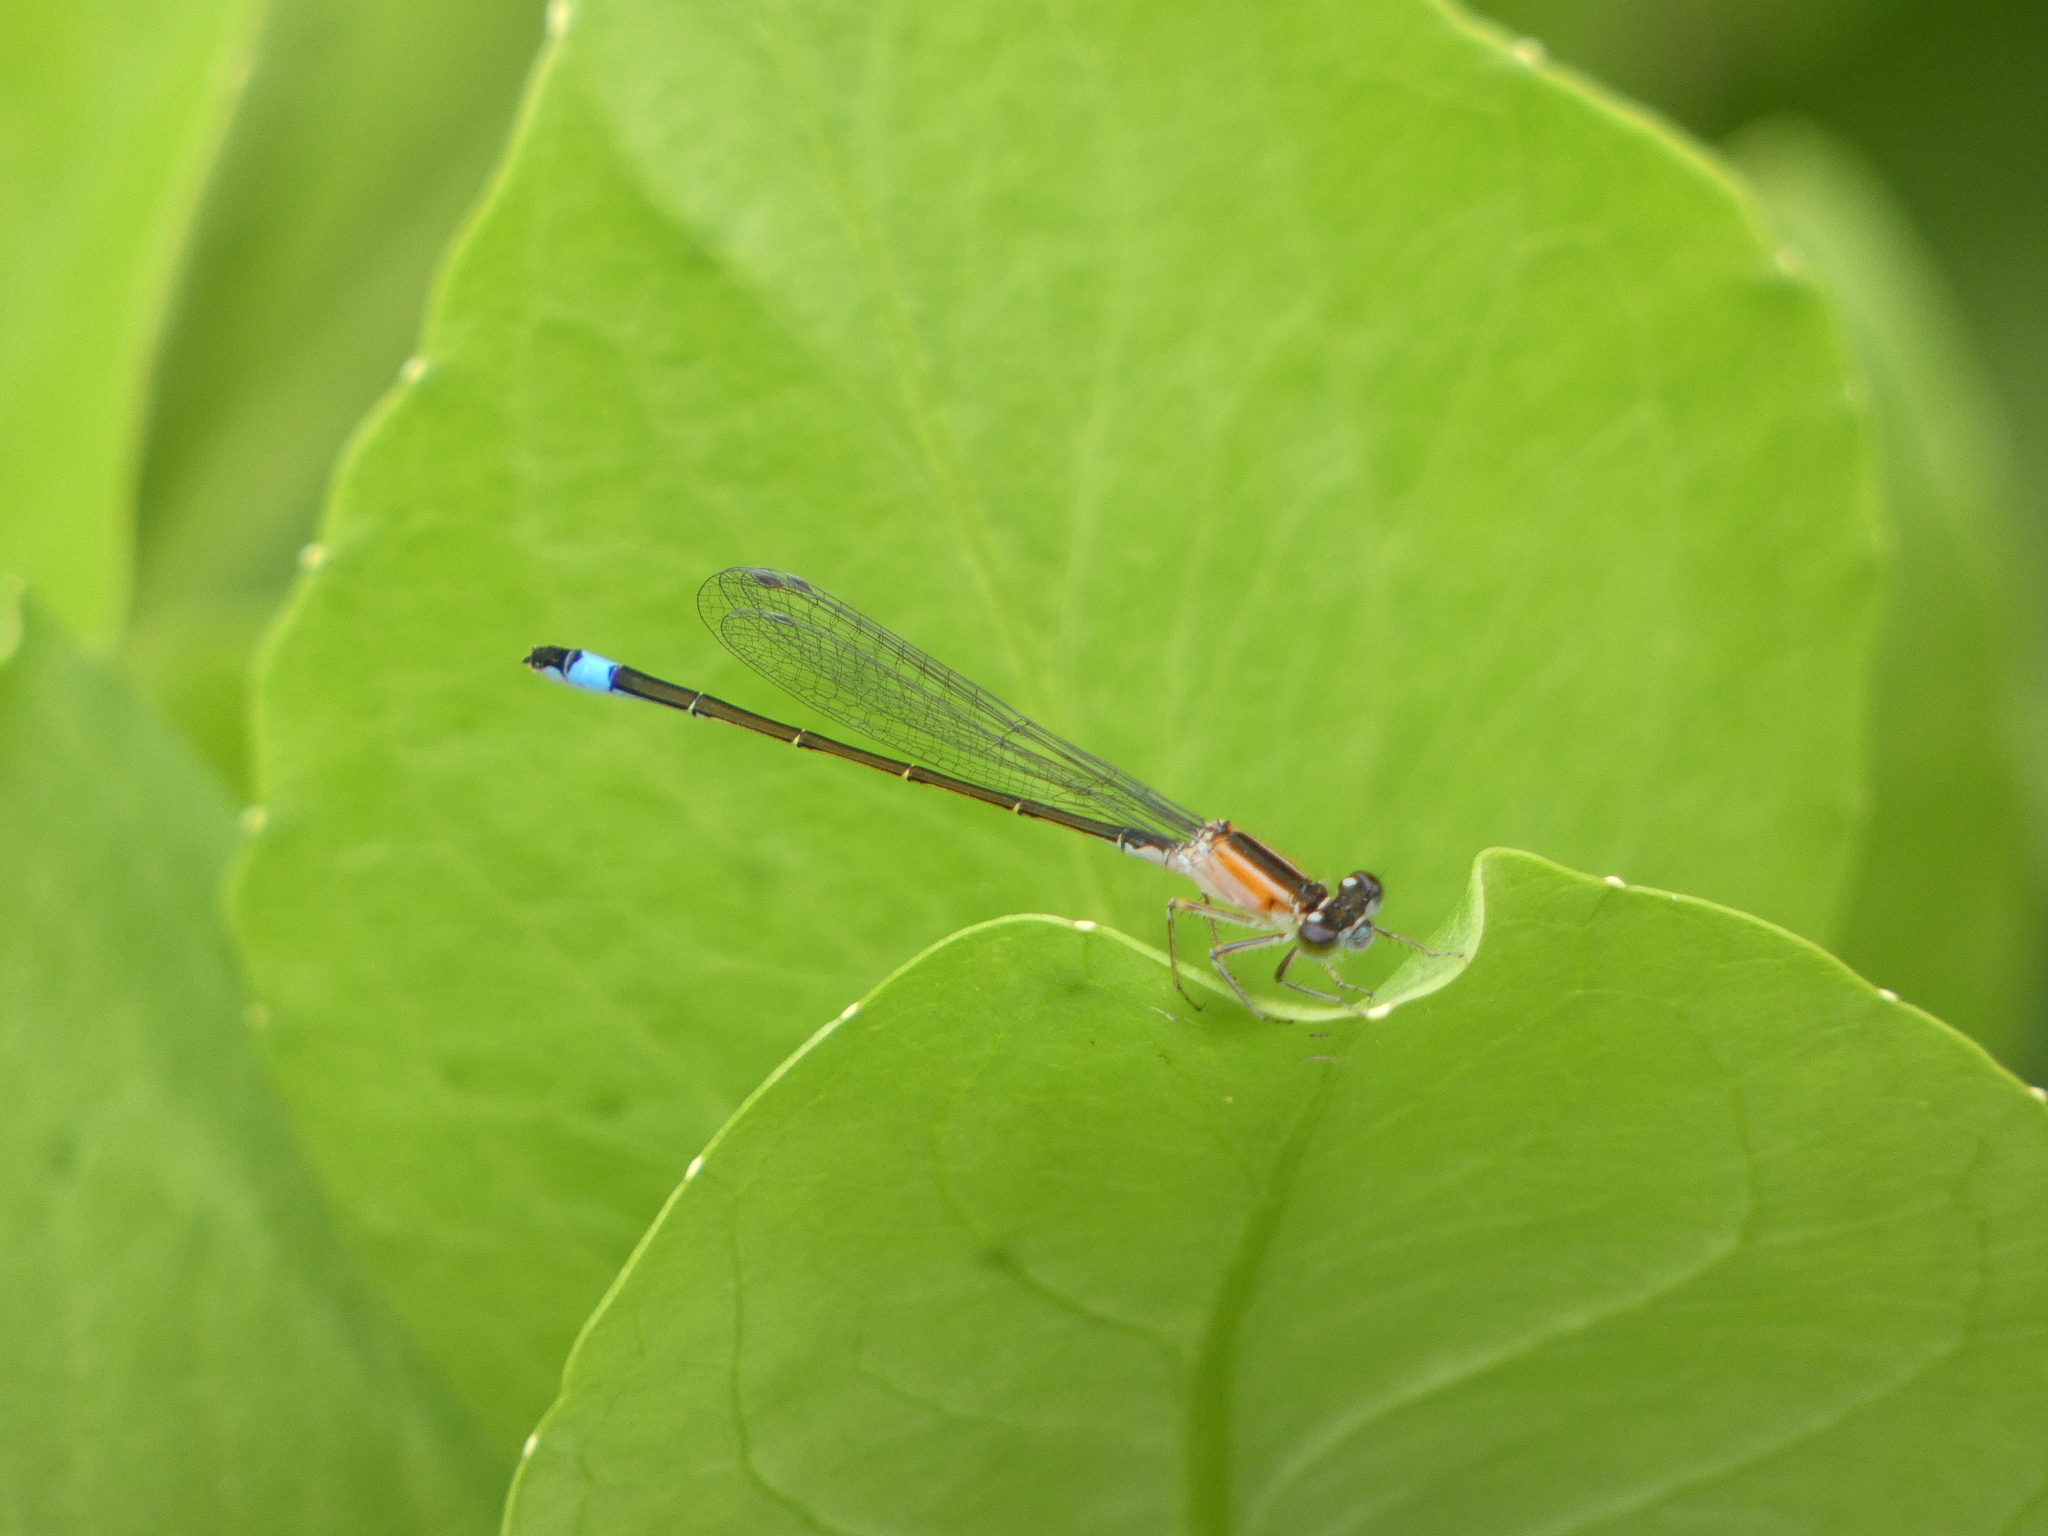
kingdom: Animalia
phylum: Arthropoda
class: Insecta
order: Odonata
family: Coenagrionidae
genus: Ischnura
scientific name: Ischnura elegans
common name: Blue-tailed damselfly
